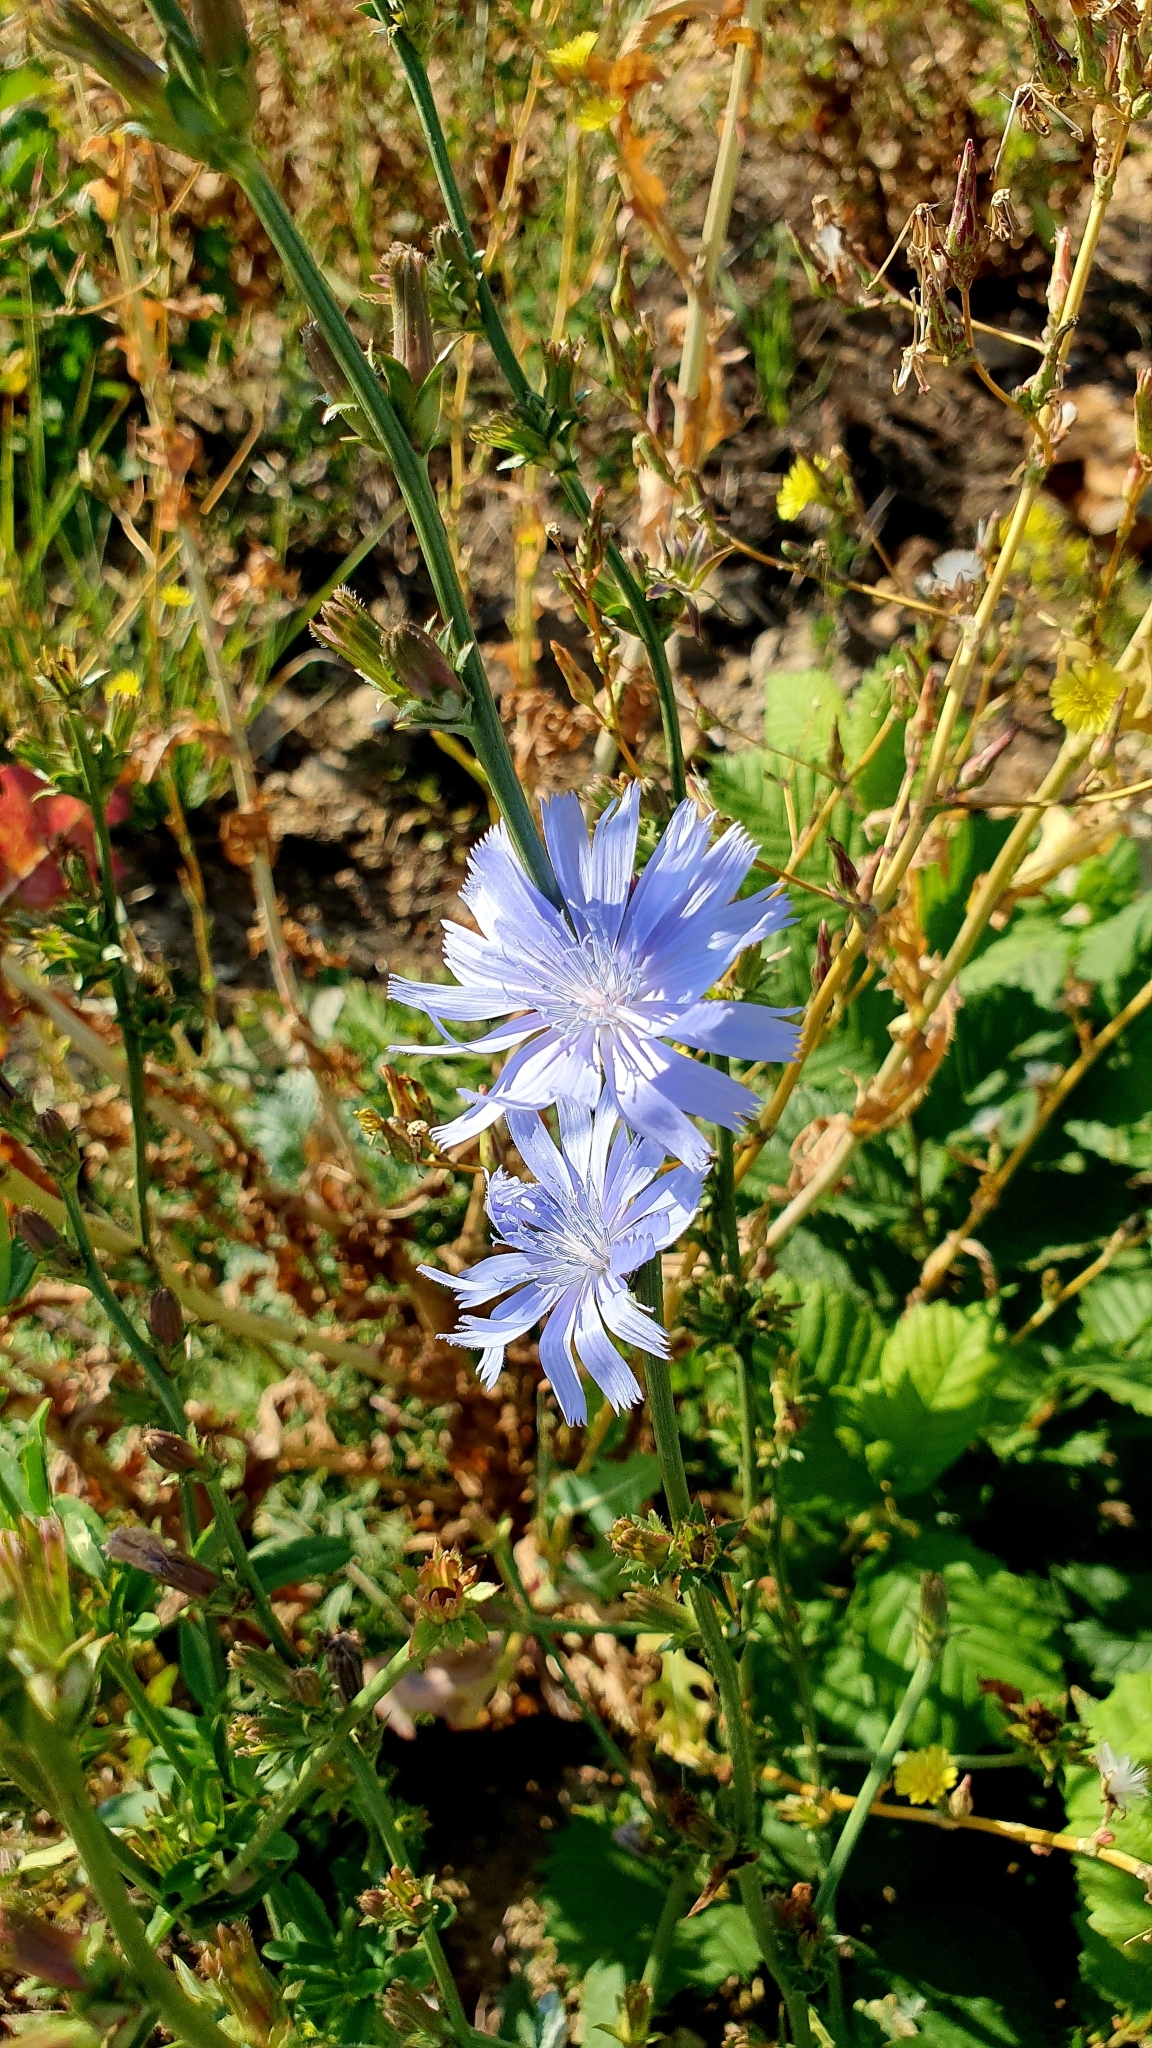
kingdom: Plantae
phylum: Tracheophyta
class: Magnoliopsida
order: Asterales
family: Asteraceae
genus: Cichorium
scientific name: Cichorium intybus
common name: Chicory
